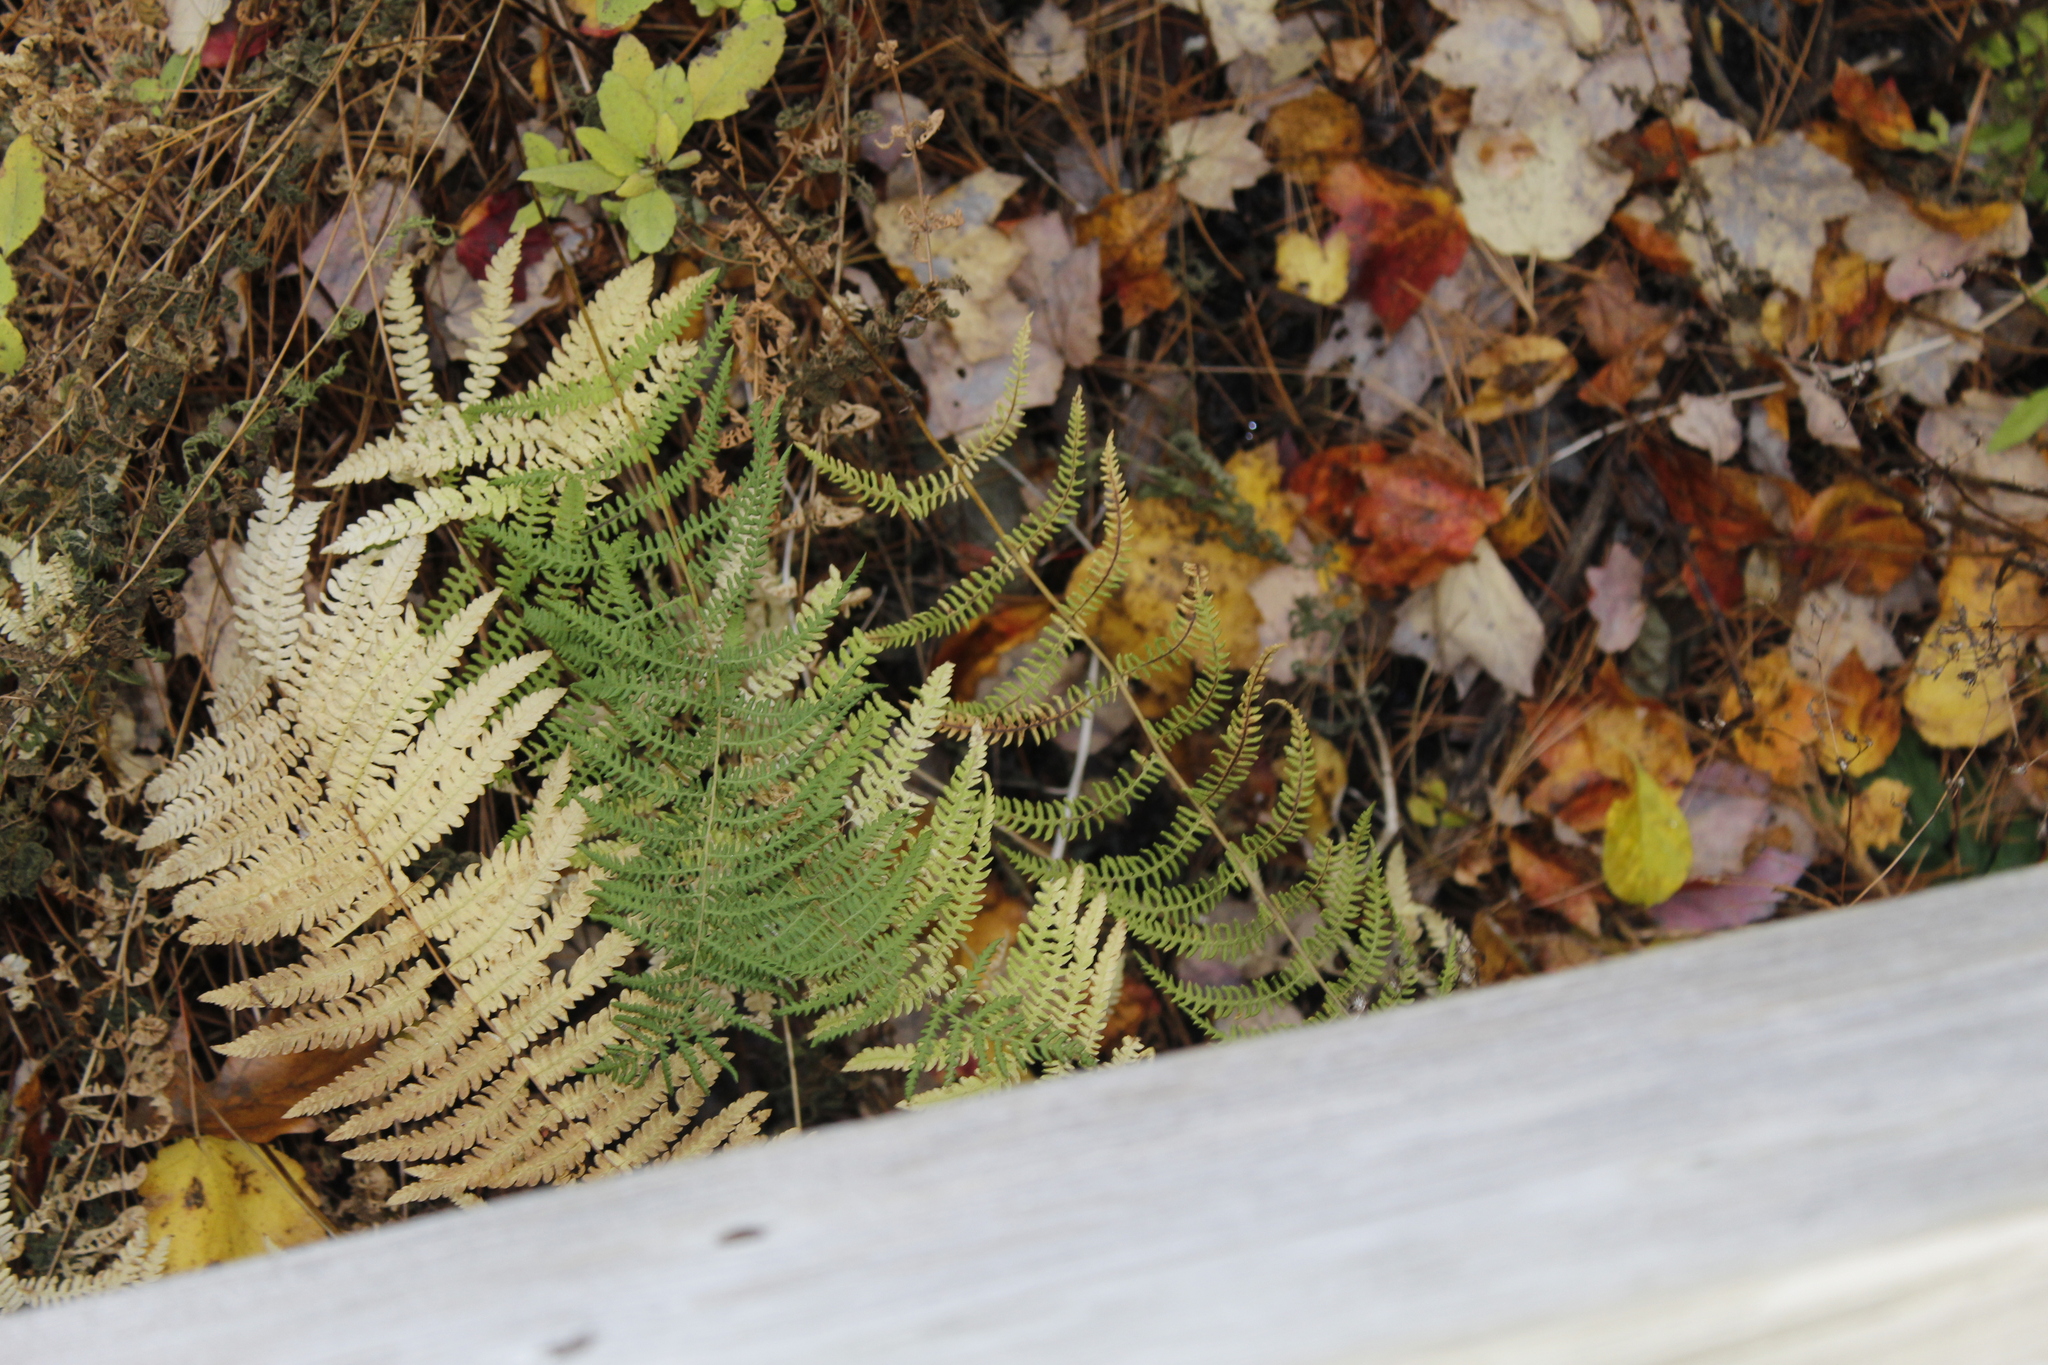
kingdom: Plantae
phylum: Tracheophyta
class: Polypodiopsida
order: Polypodiales
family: Thelypteridaceae
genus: Thelypteris
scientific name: Thelypteris palustris
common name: Marsh fern
